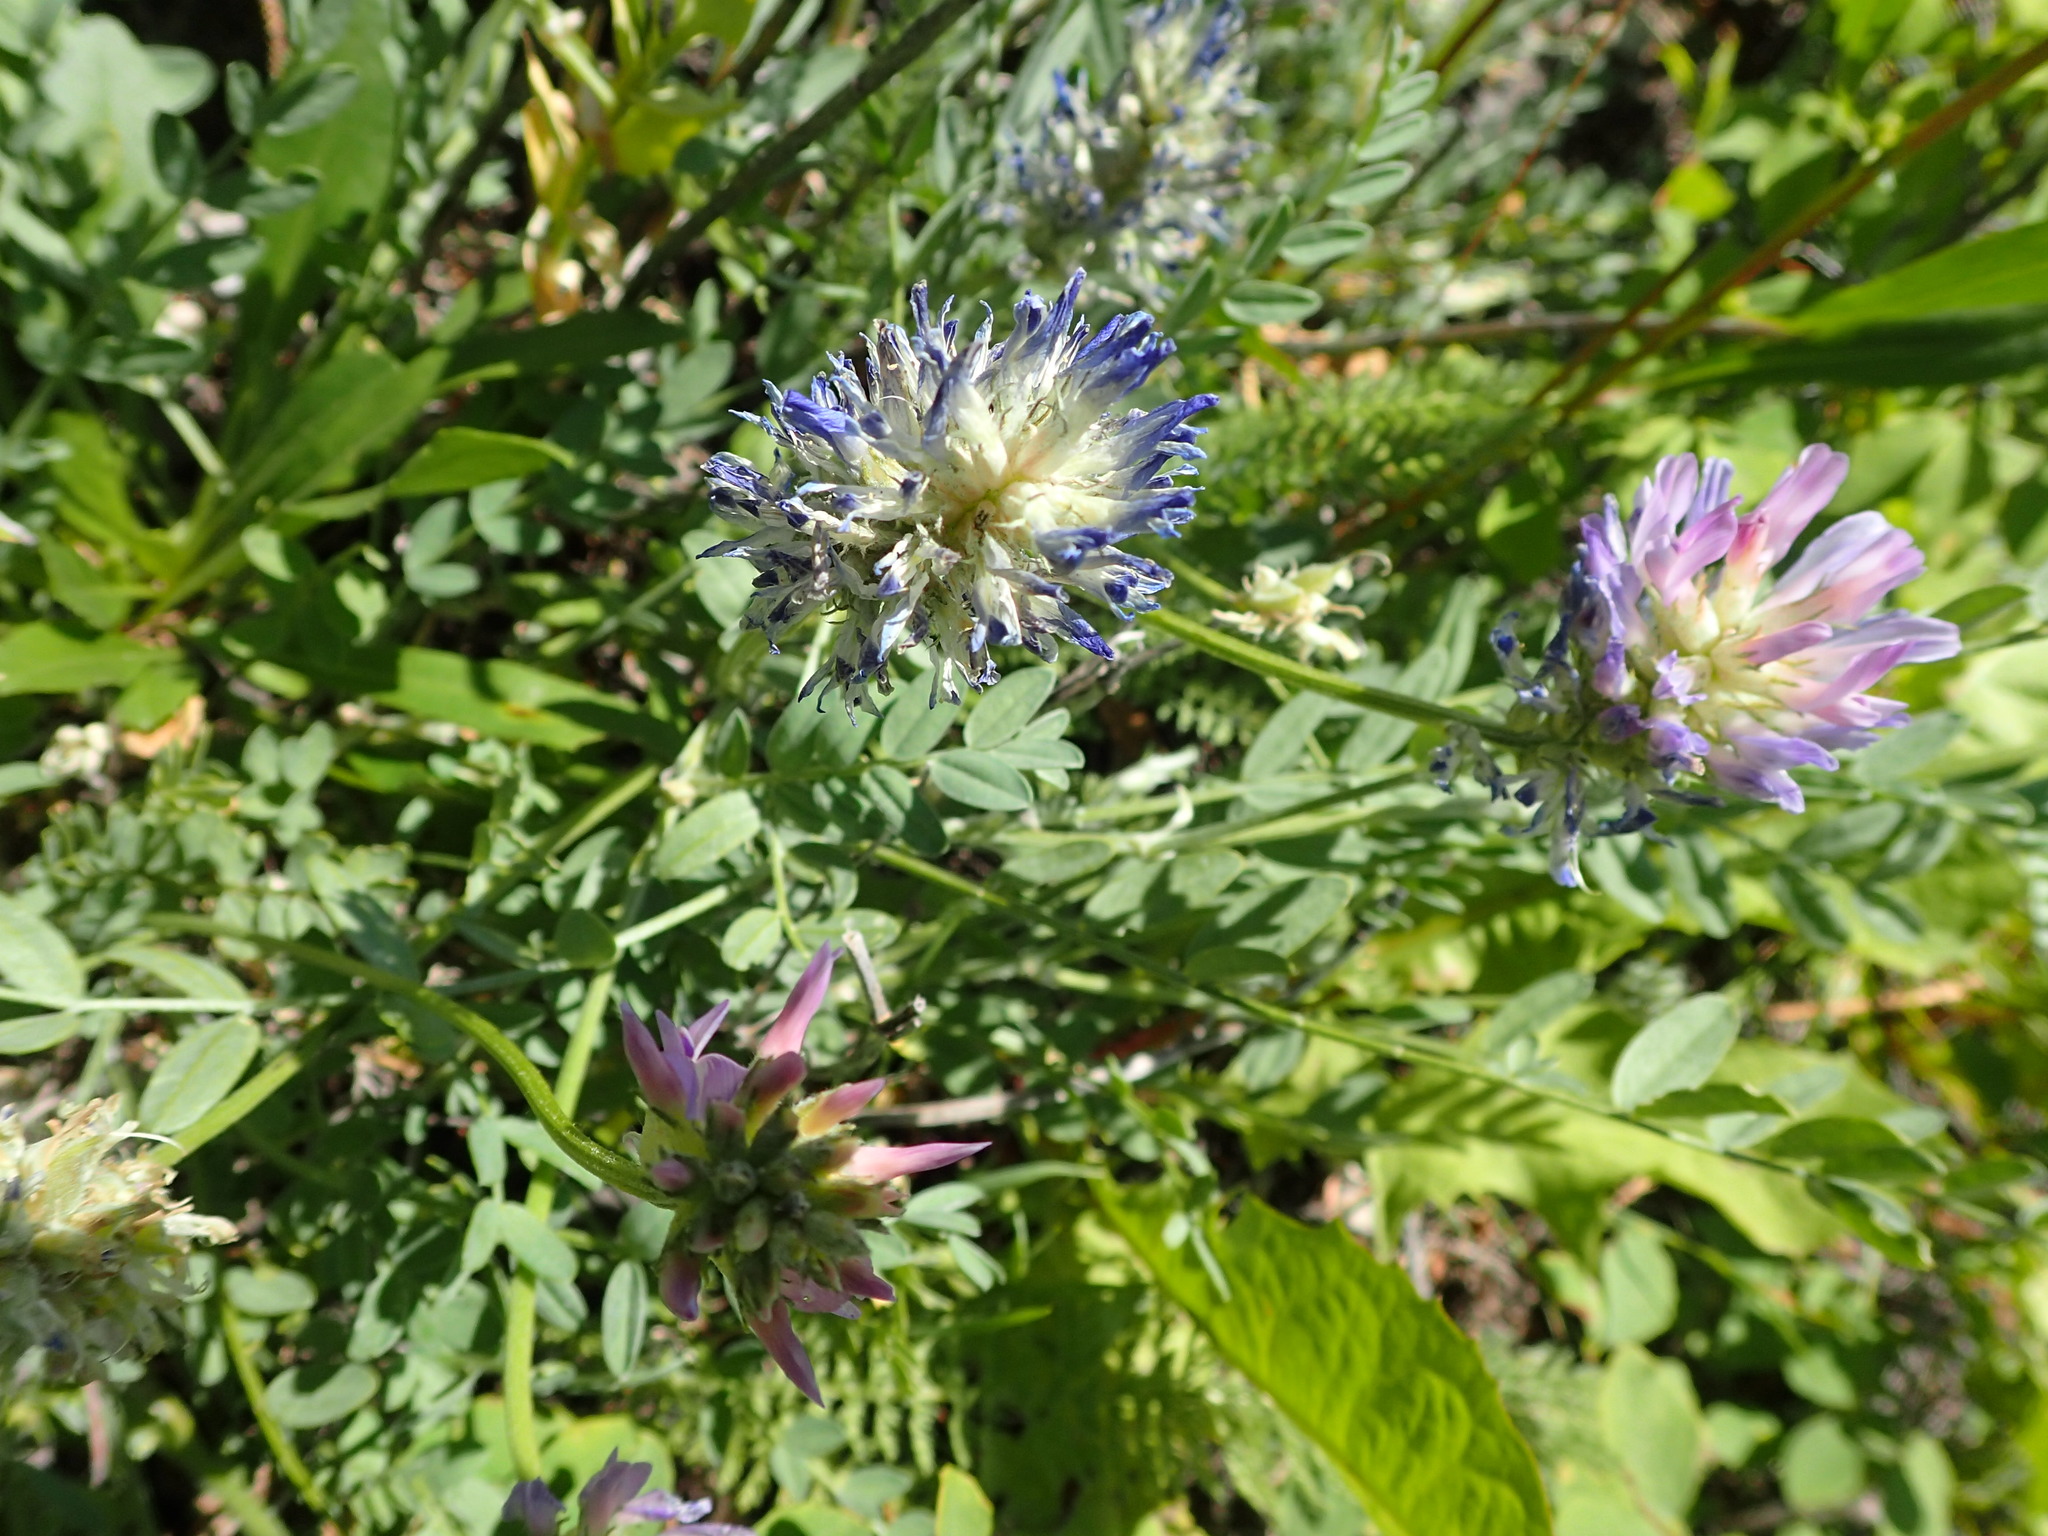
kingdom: Plantae
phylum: Tracheophyta
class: Magnoliopsida
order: Fabales
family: Fabaceae
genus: Astragalus
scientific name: Astragalus laxmannii
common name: Laxmann's milk-vetch
